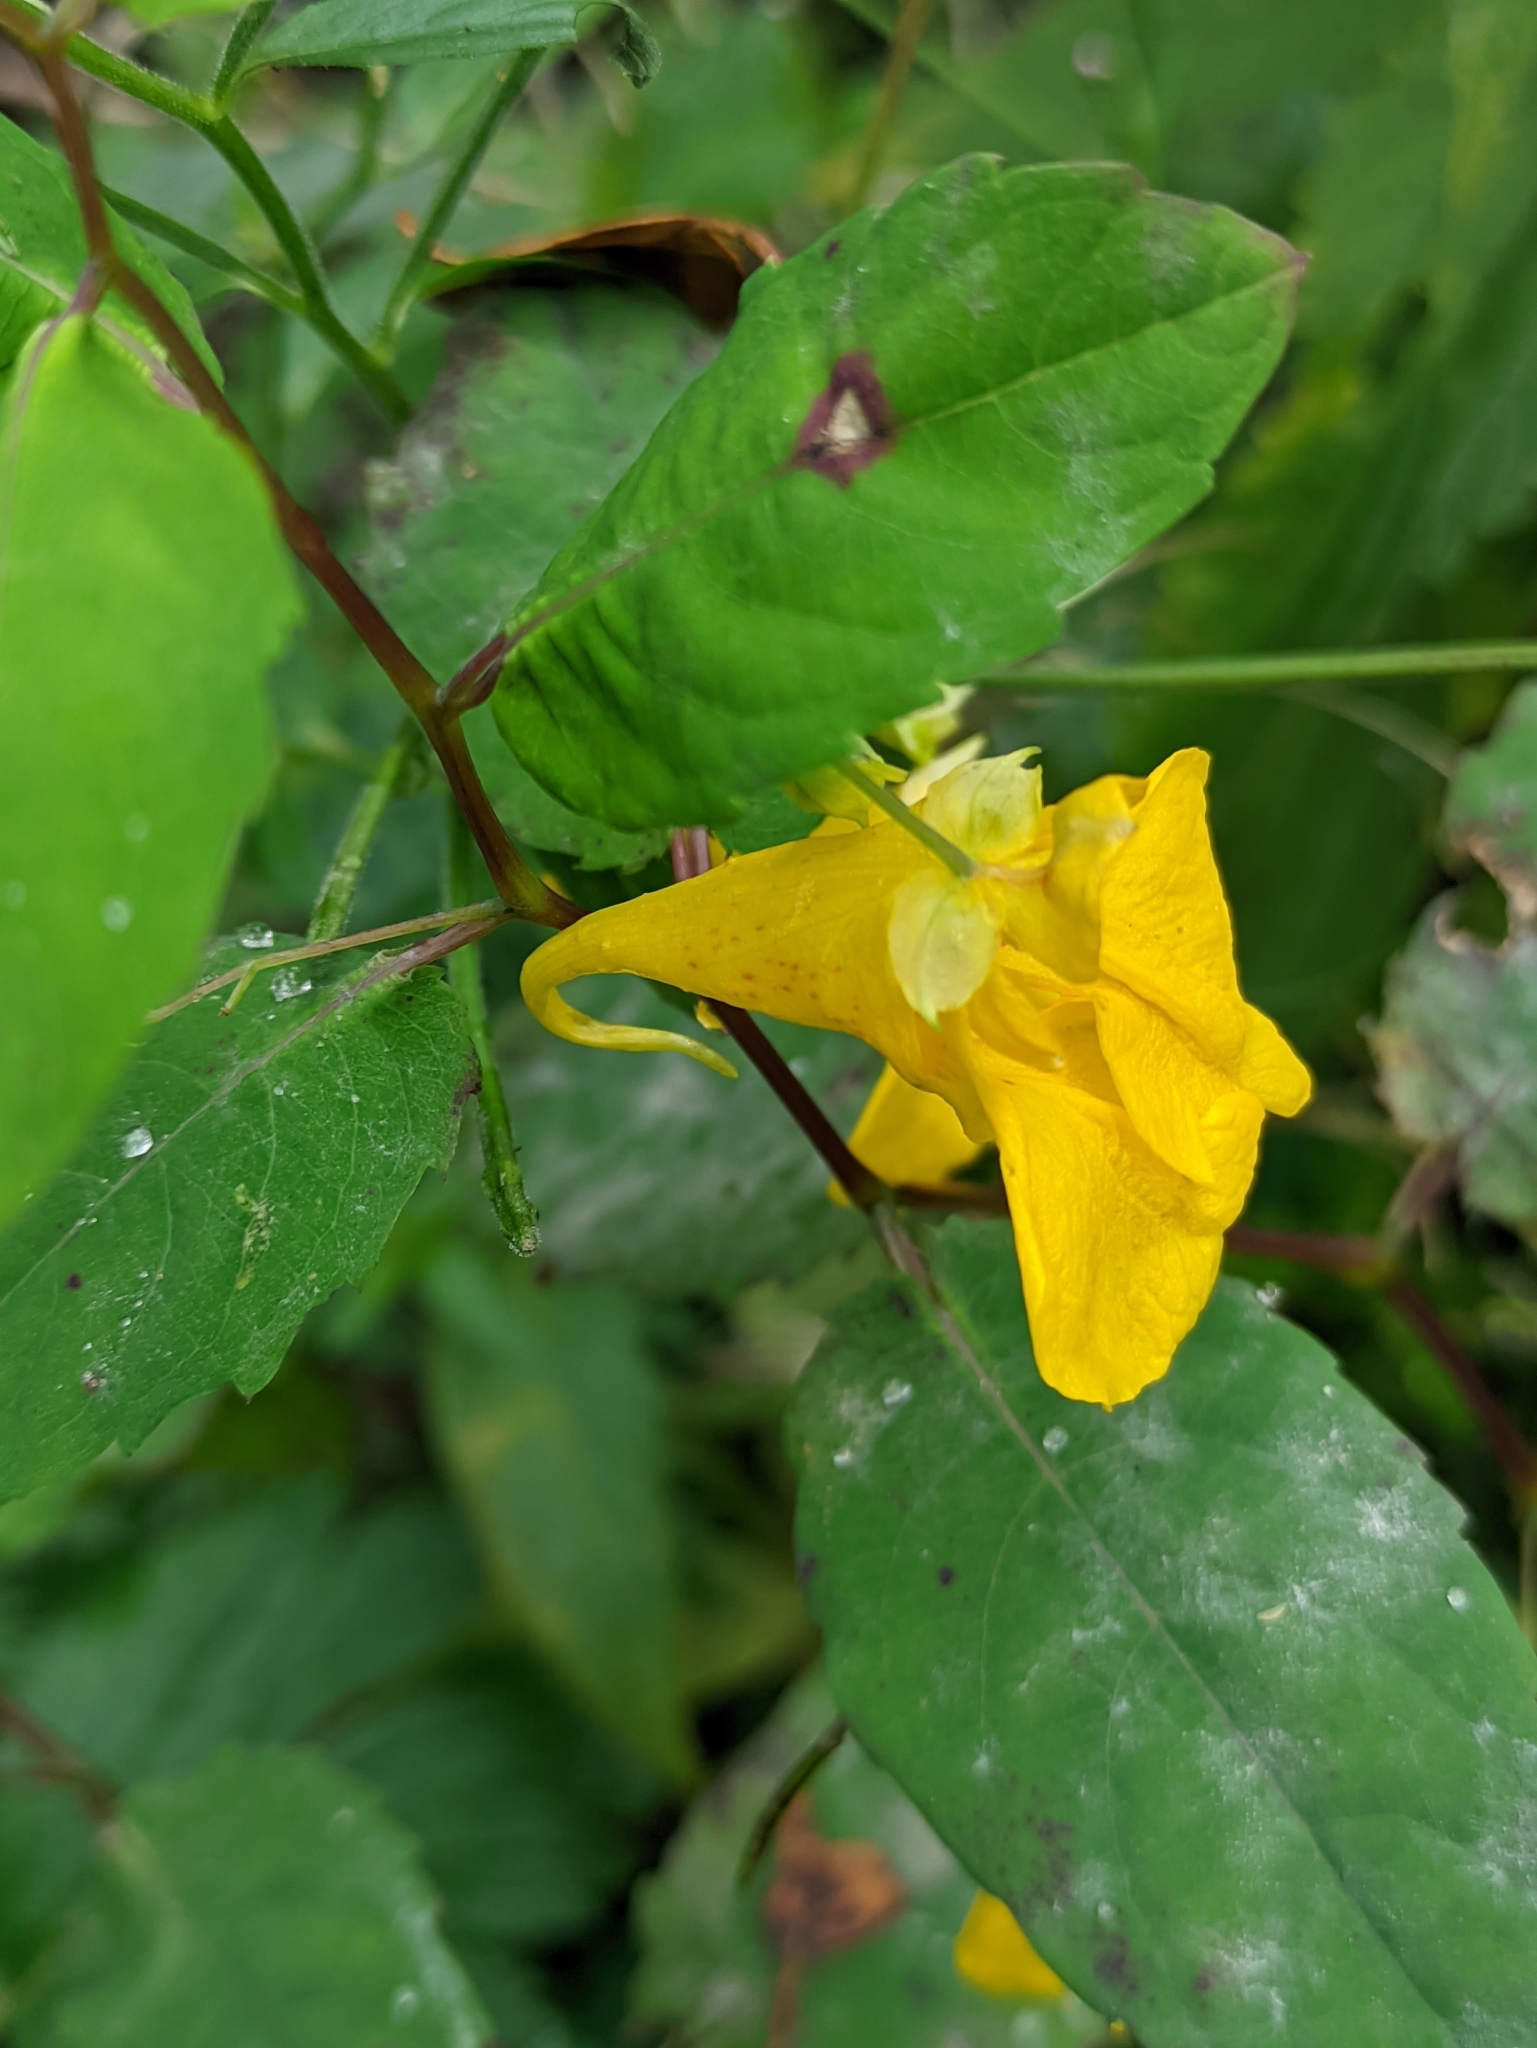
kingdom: Plantae
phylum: Tracheophyta
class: Magnoliopsida
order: Ericales
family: Balsaminaceae
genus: Impatiens
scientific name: Impatiens noli-tangere
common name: Touch-me-not balsam
